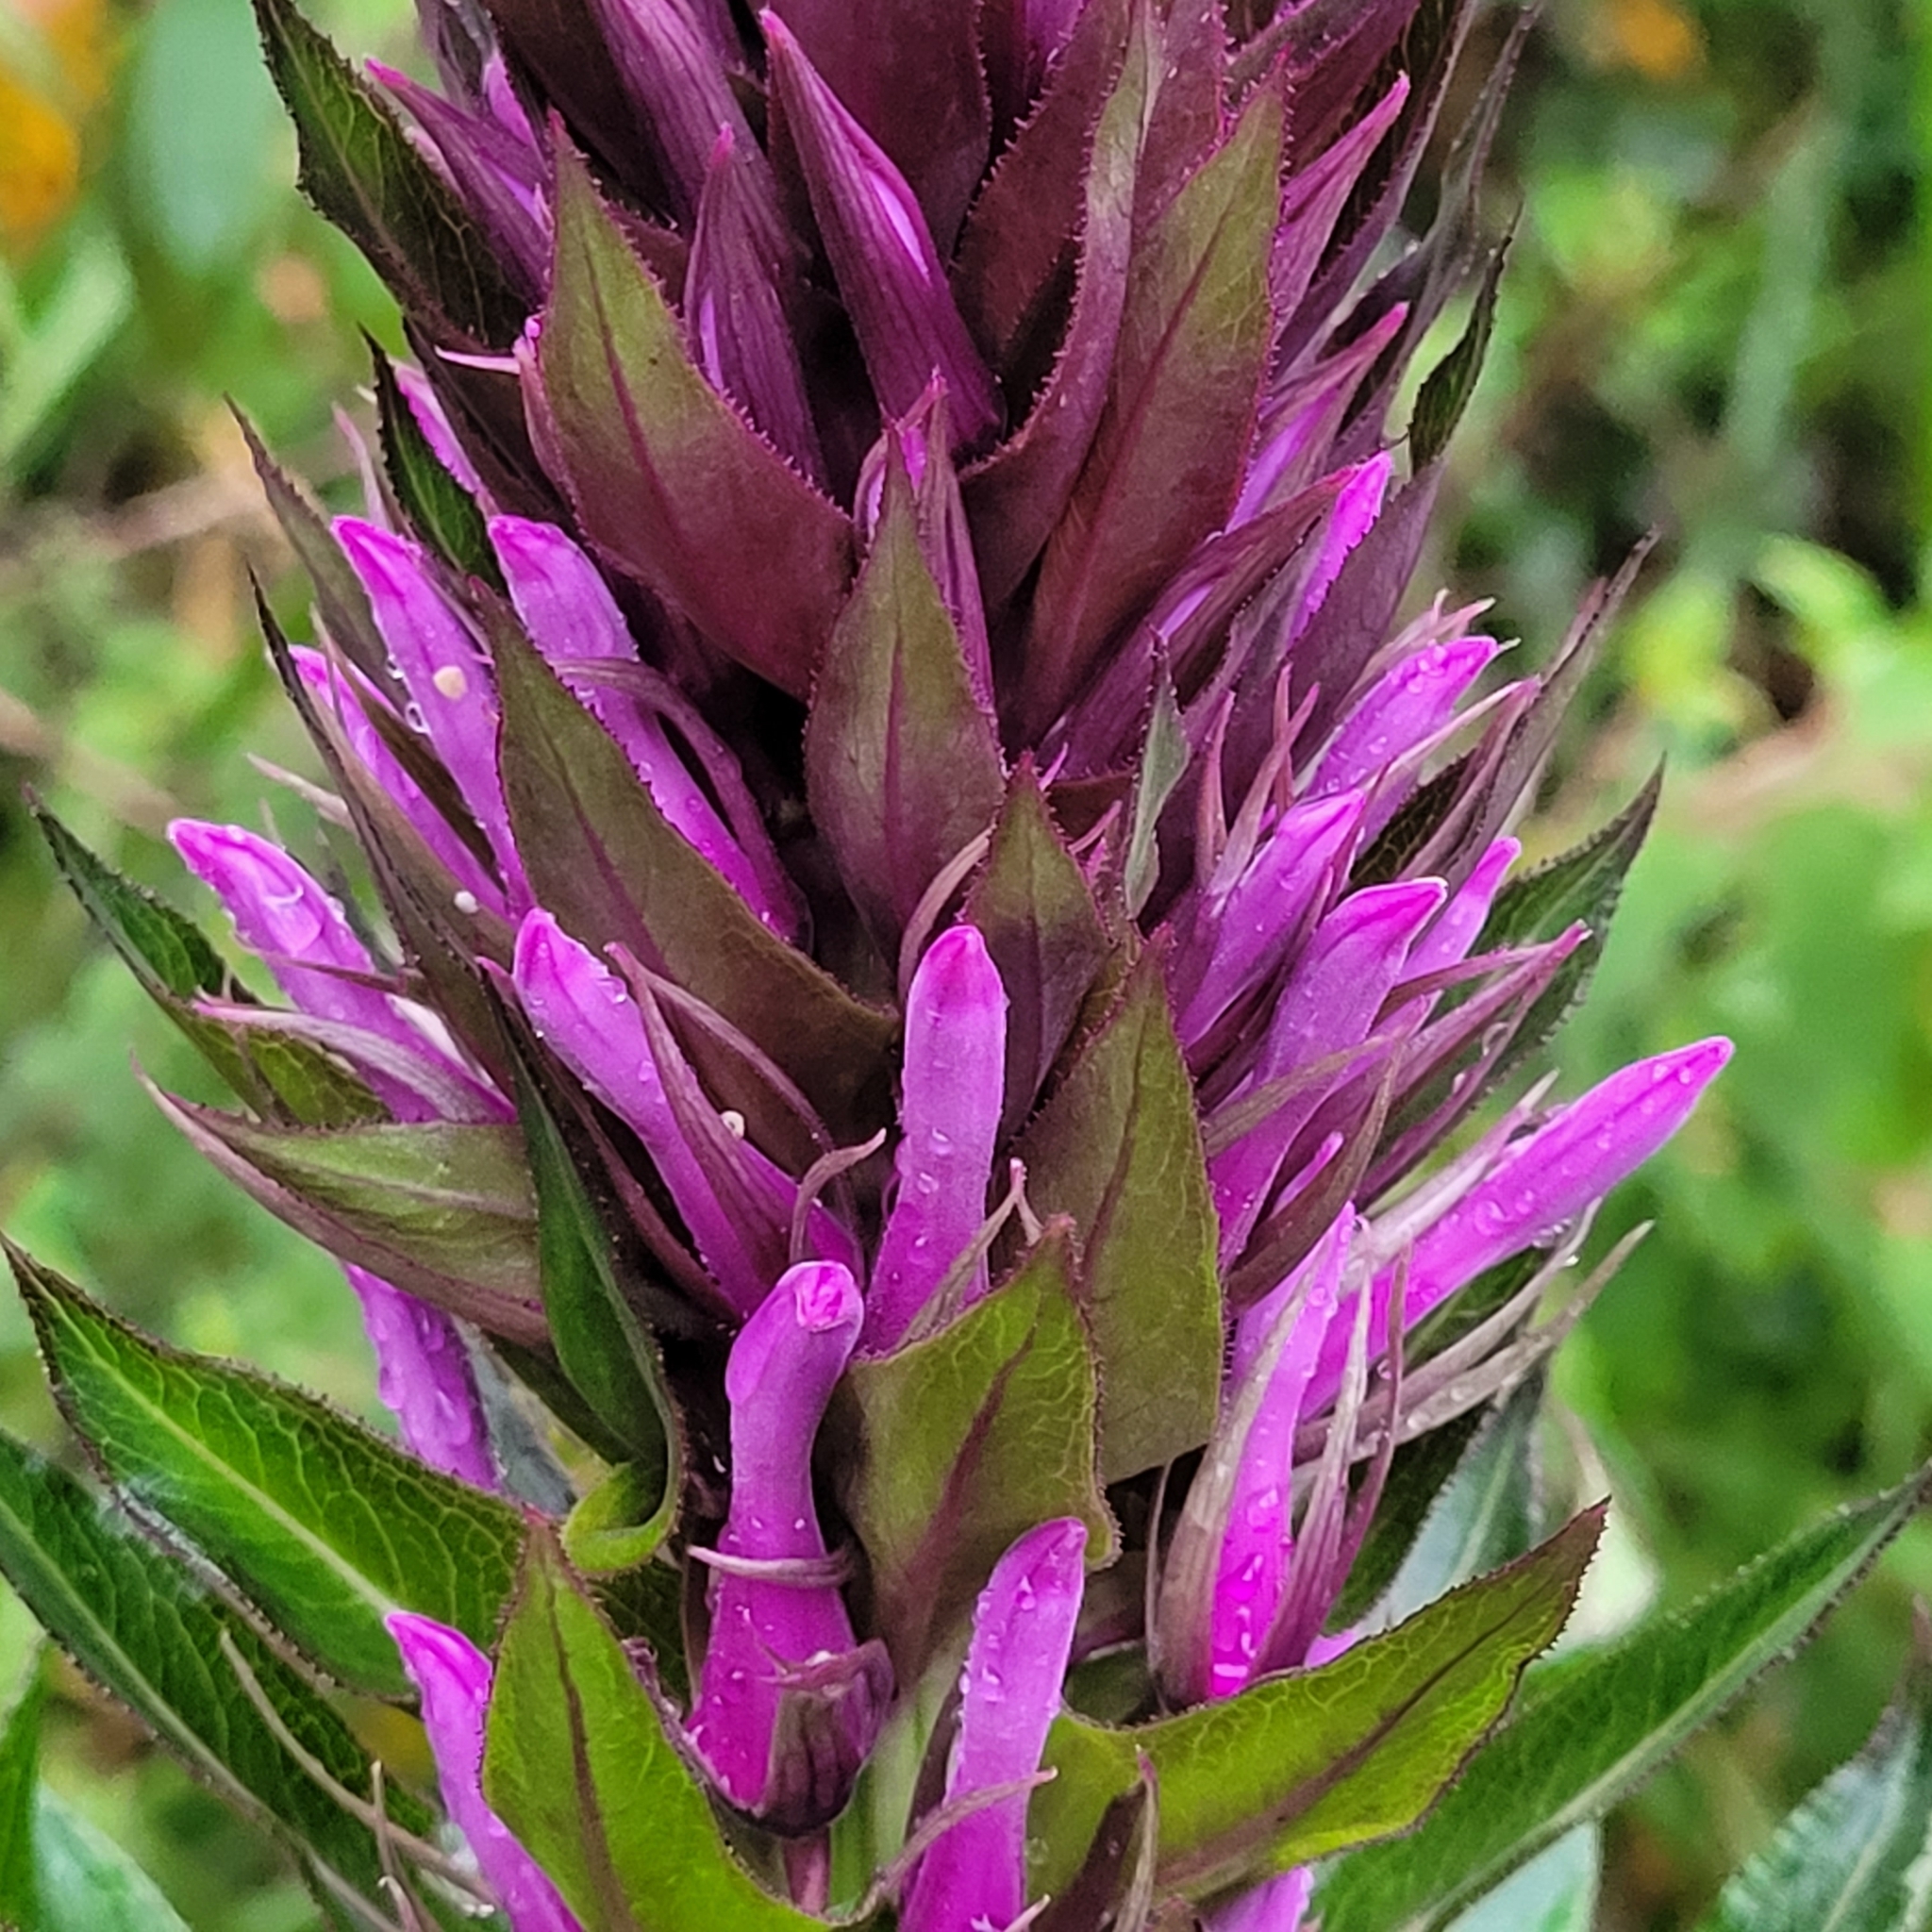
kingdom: Plantae
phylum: Tracheophyta
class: Magnoliopsida
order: Asterales
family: Campanulaceae
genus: Lobelia
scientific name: Lobelia thapsoidea
